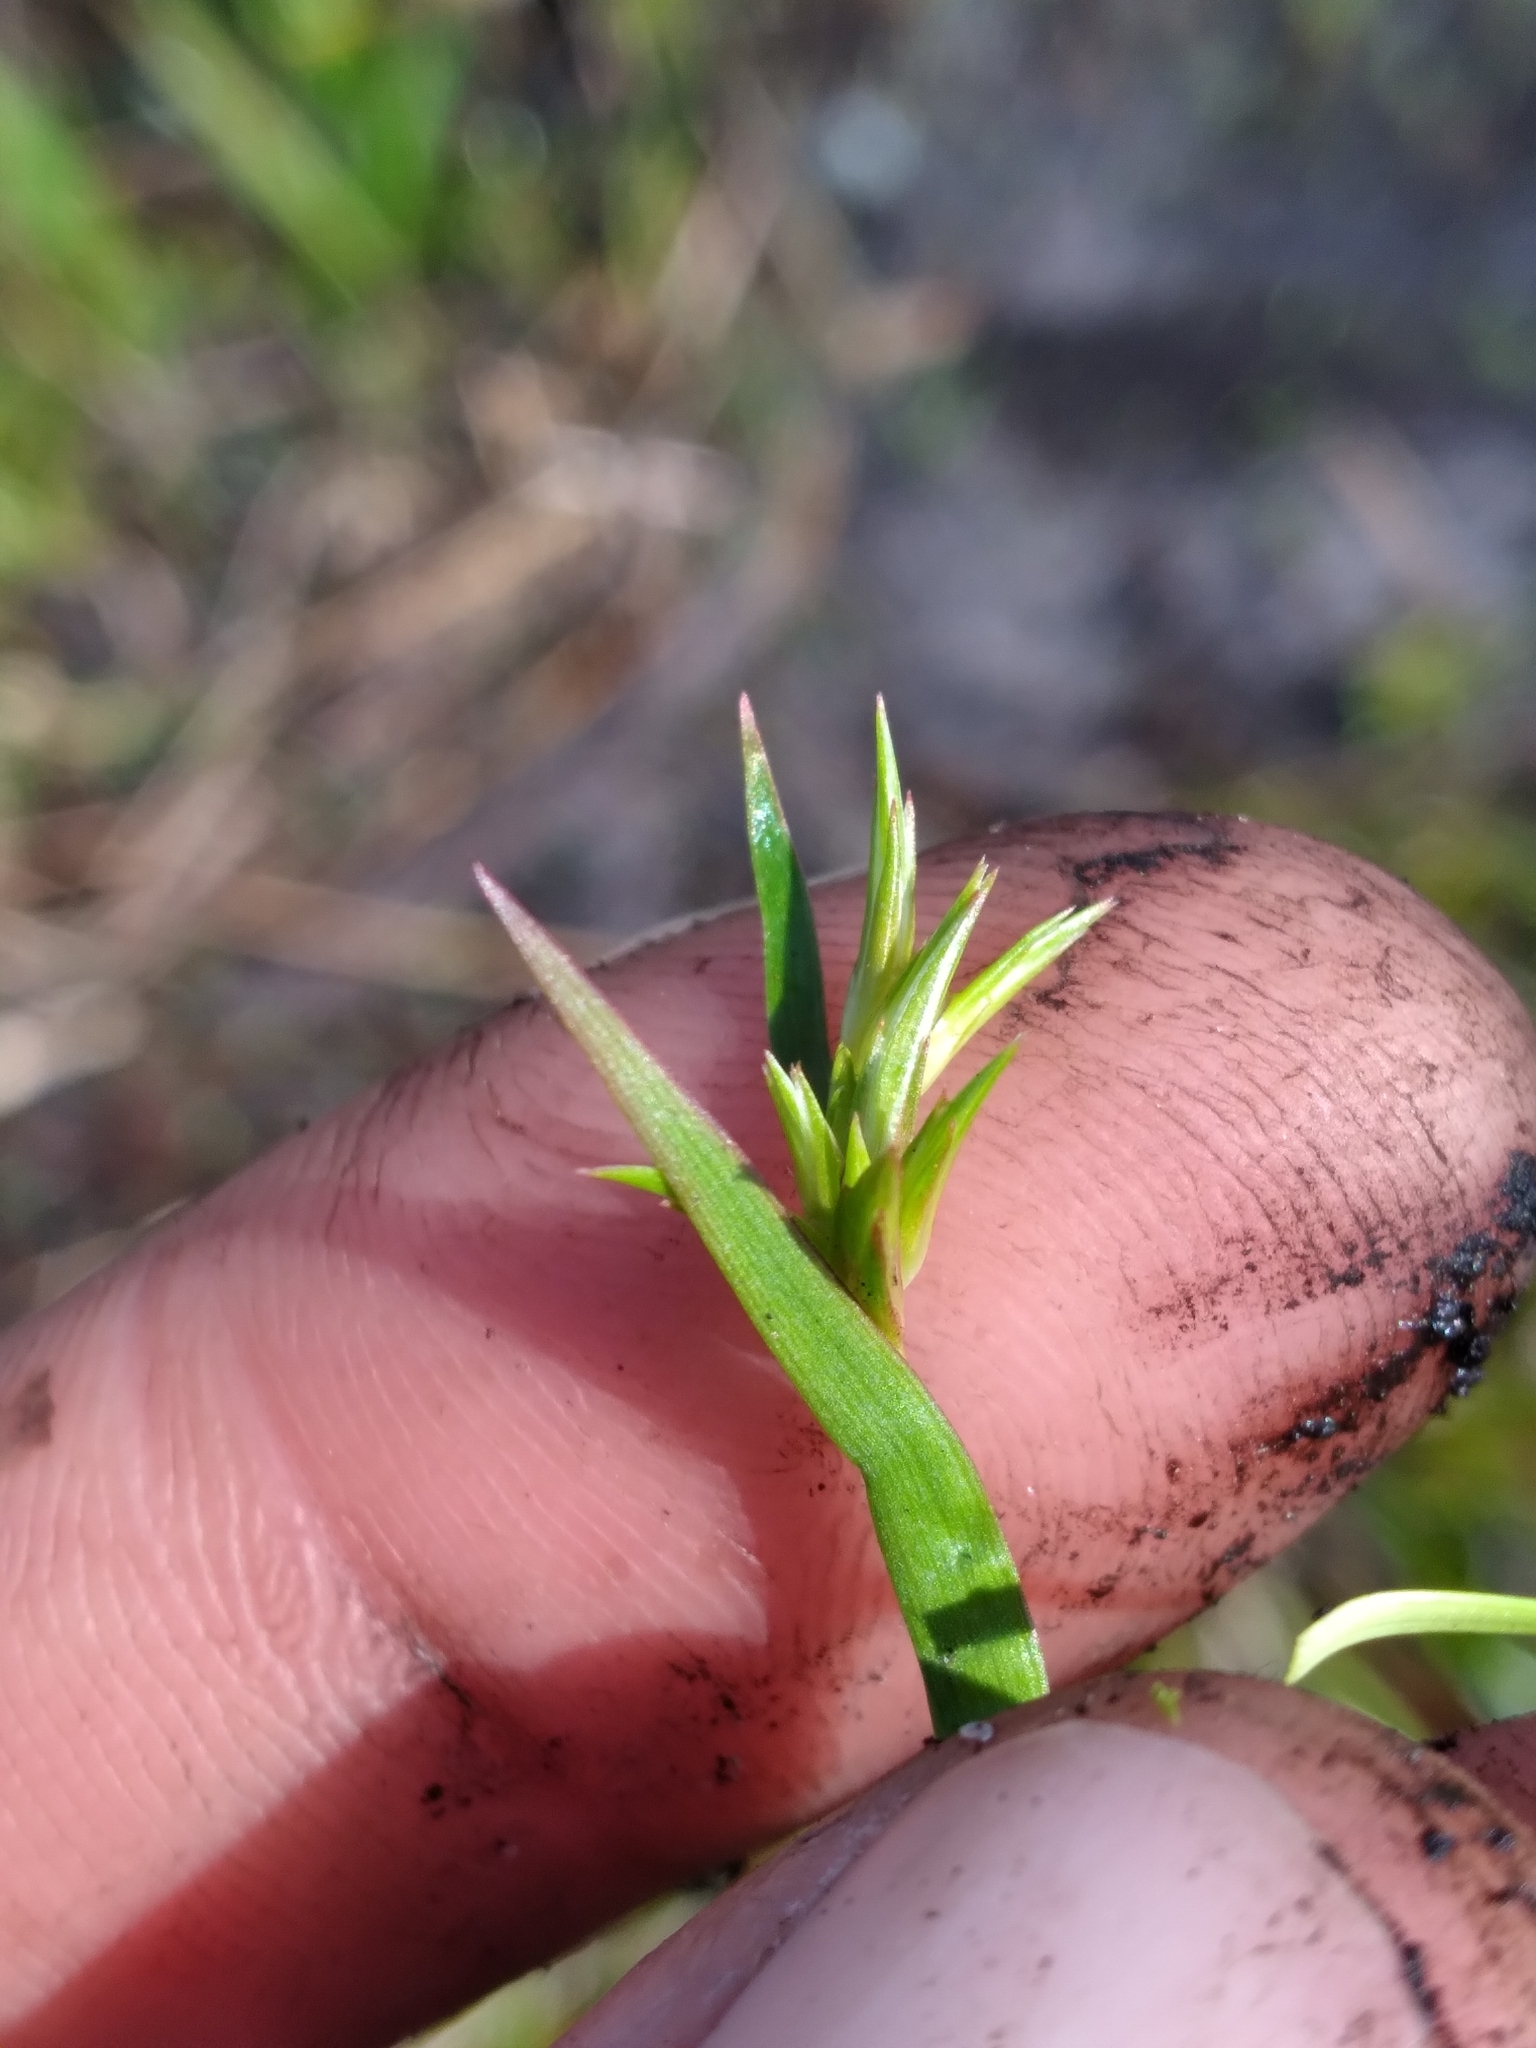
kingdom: Plantae
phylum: Tracheophyta
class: Liliopsida
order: Poales
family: Juncaceae
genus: Juncus
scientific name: Juncus repens
